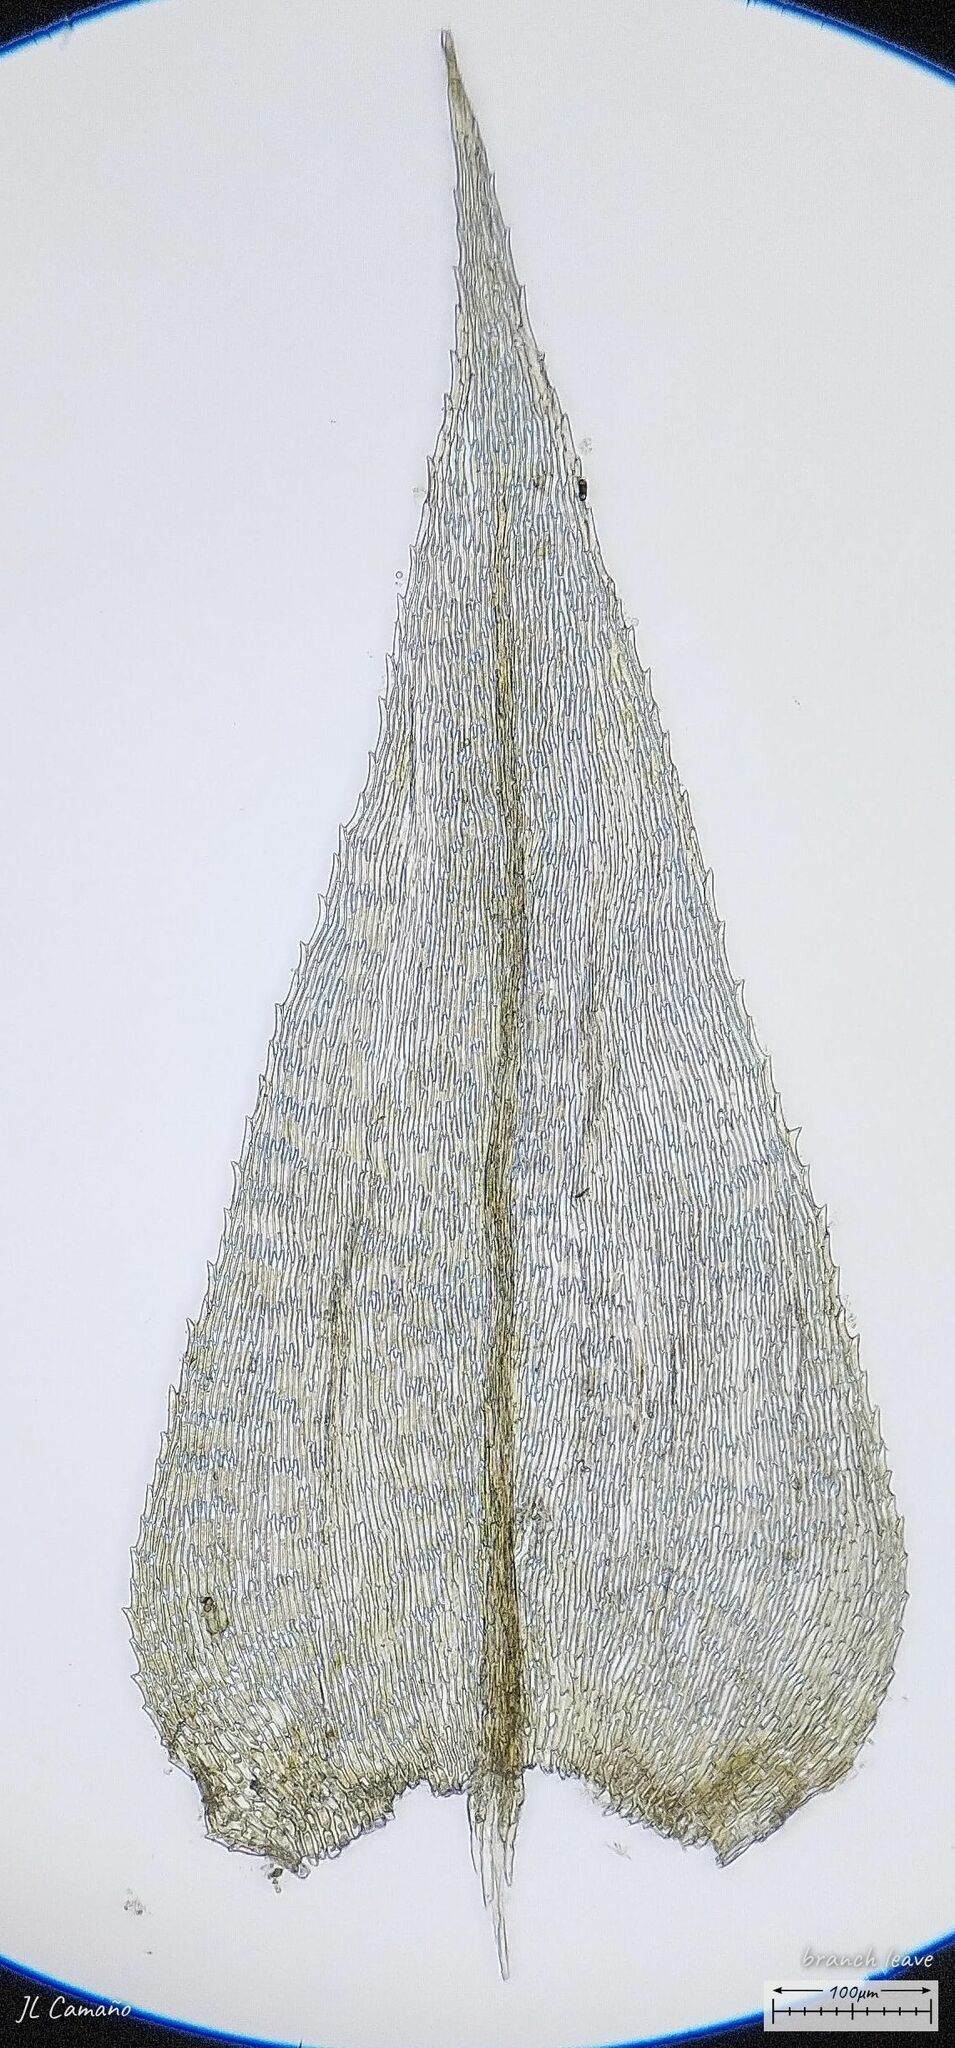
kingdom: Plantae
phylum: Bryophyta
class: Bryopsida
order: Hypnales
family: Brachytheciaceae
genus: Kindbergia
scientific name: Kindbergia praelonga
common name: Slender beaked moss
